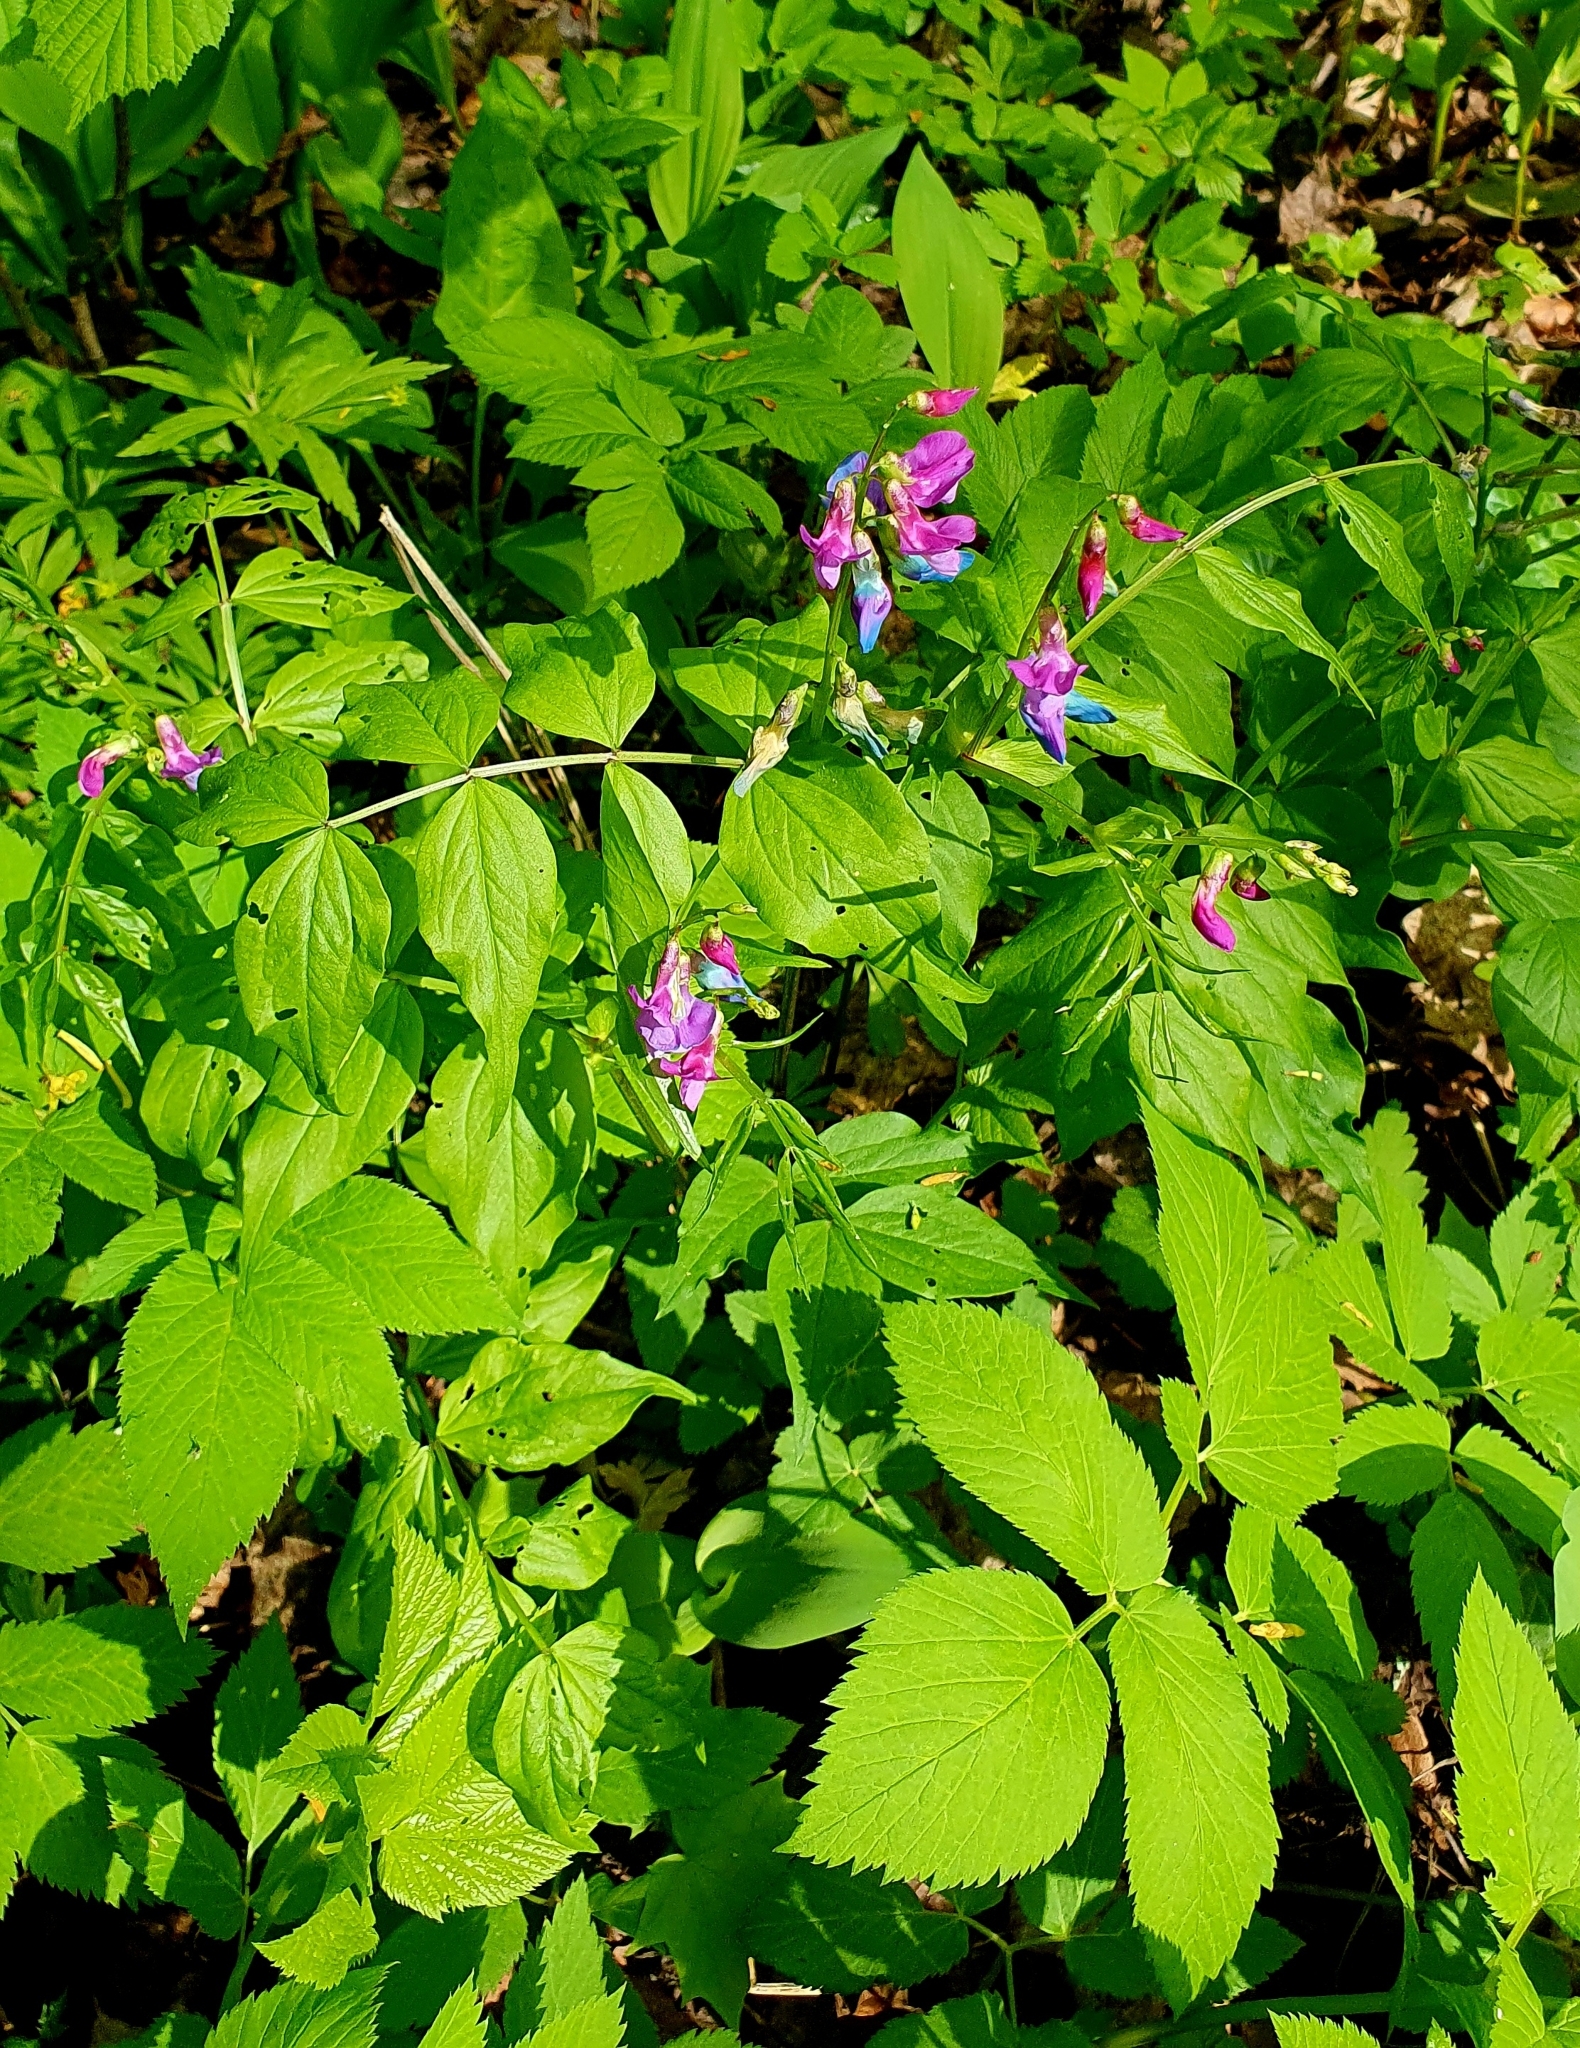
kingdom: Plantae
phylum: Tracheophyta
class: Magnoliopsida
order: Fabales
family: Fabaceae
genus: Lathyrus
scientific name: Lathyrus vernus
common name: Spring pea
